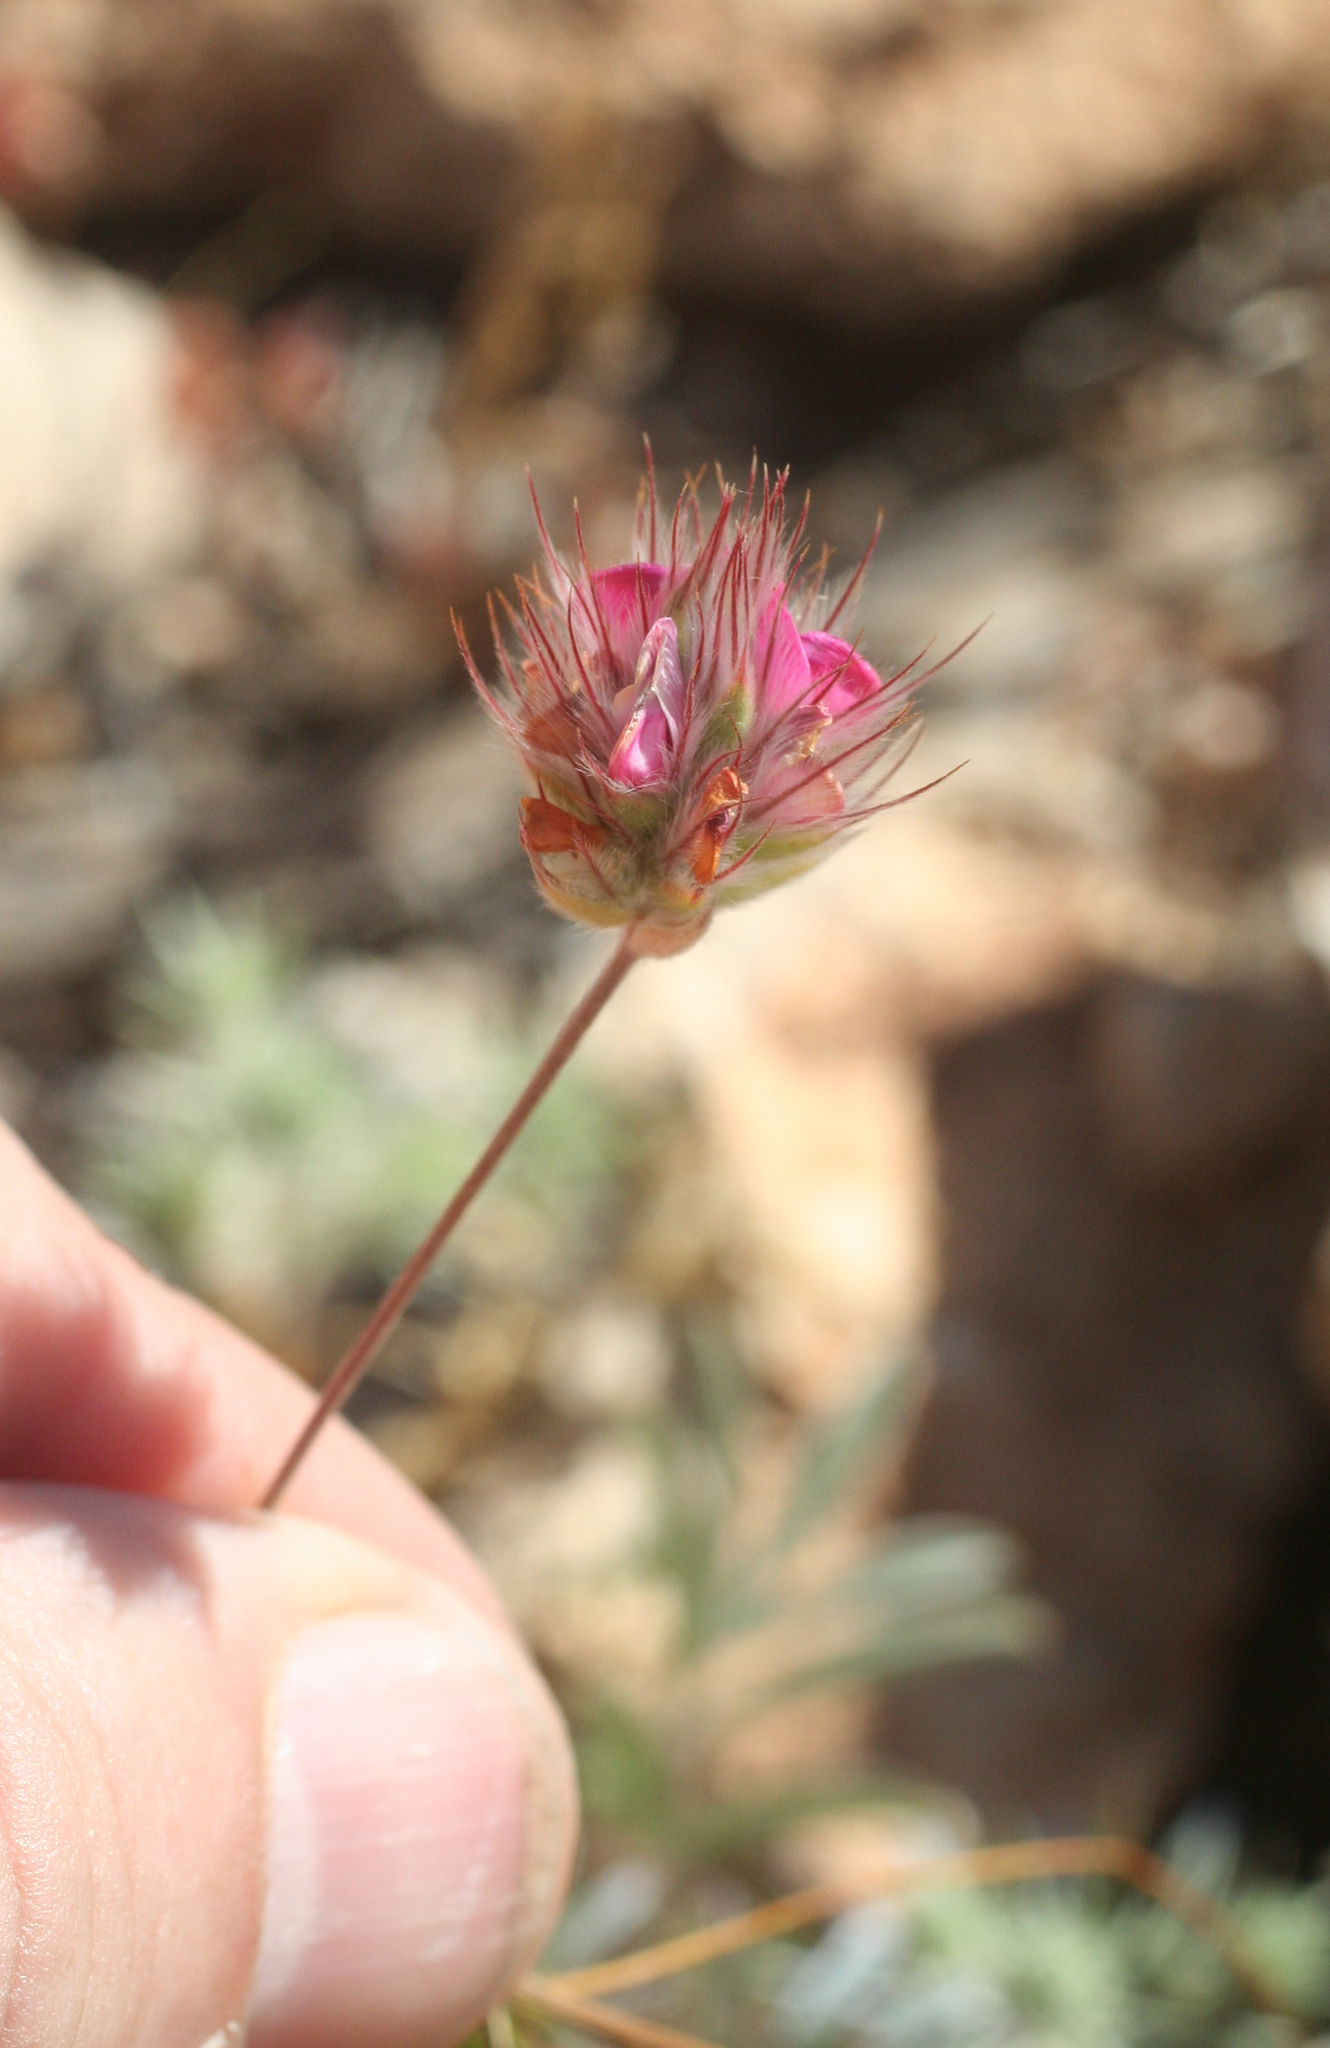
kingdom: Plantae
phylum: Tracheophyta
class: Magnoliopsida
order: Fabales
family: Fabaceae
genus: Ebenus
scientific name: Ebenus pinnata
